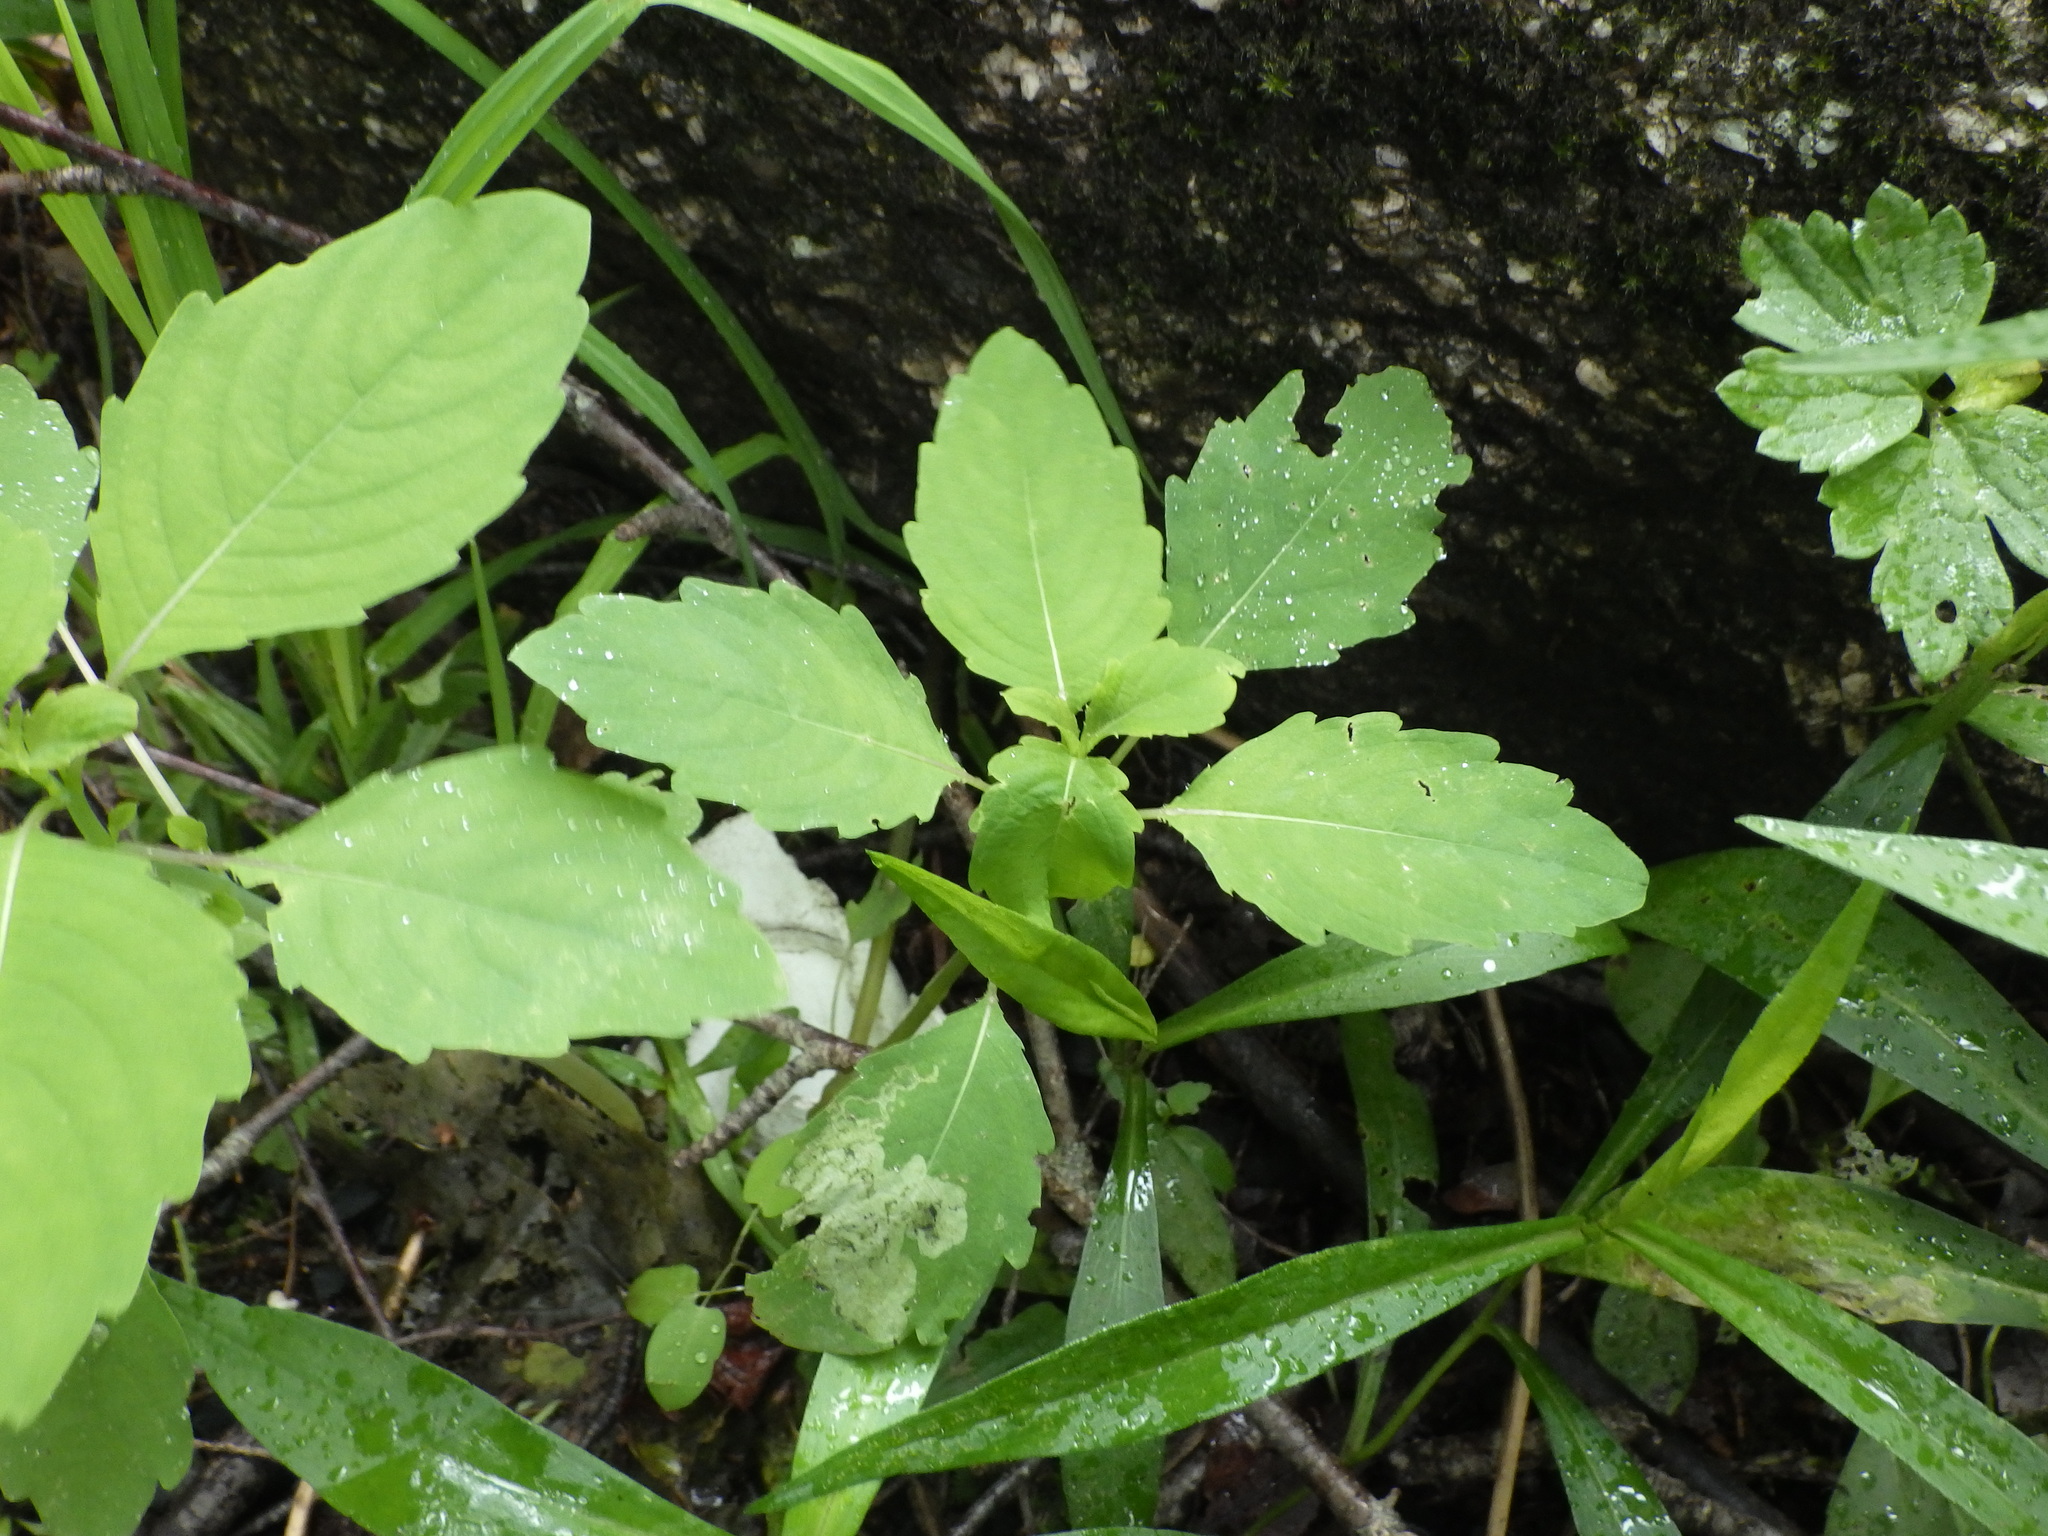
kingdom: Plantae
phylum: Tracheophyta
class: Magnoliopsida
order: Ericales
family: Balsaminaceae
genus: Impatiens
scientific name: Impatiens capensis
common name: Orange balsam
